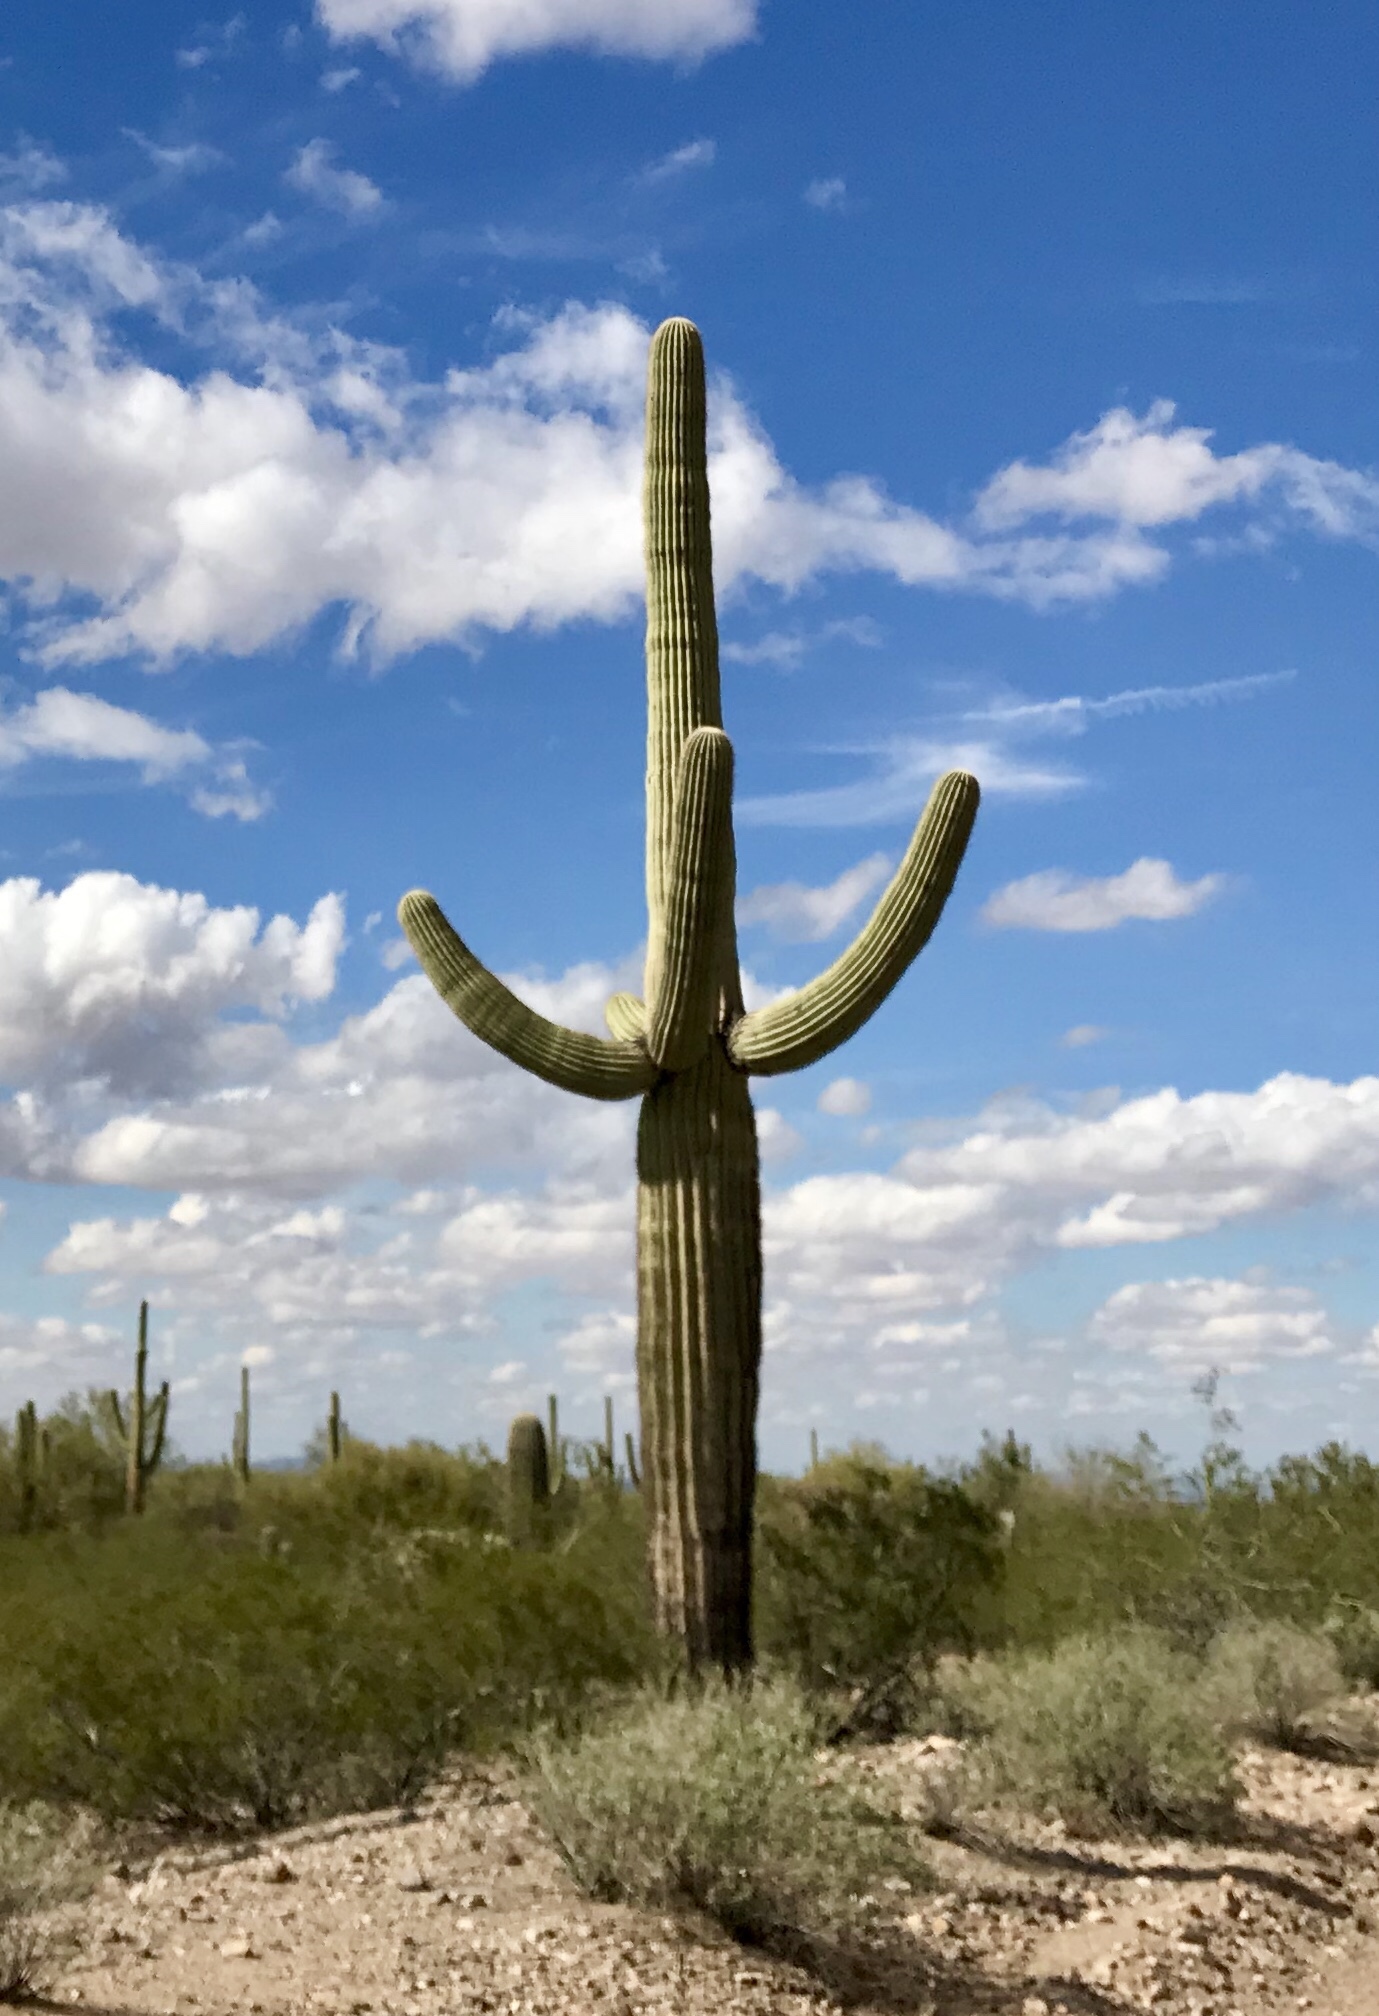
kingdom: Plantae
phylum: Tracheophyta
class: Magnoliopsida
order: Caryophyllales
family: Cactaceae
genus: Carnegiea
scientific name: Carnegiea gigantea
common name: Saguaro
